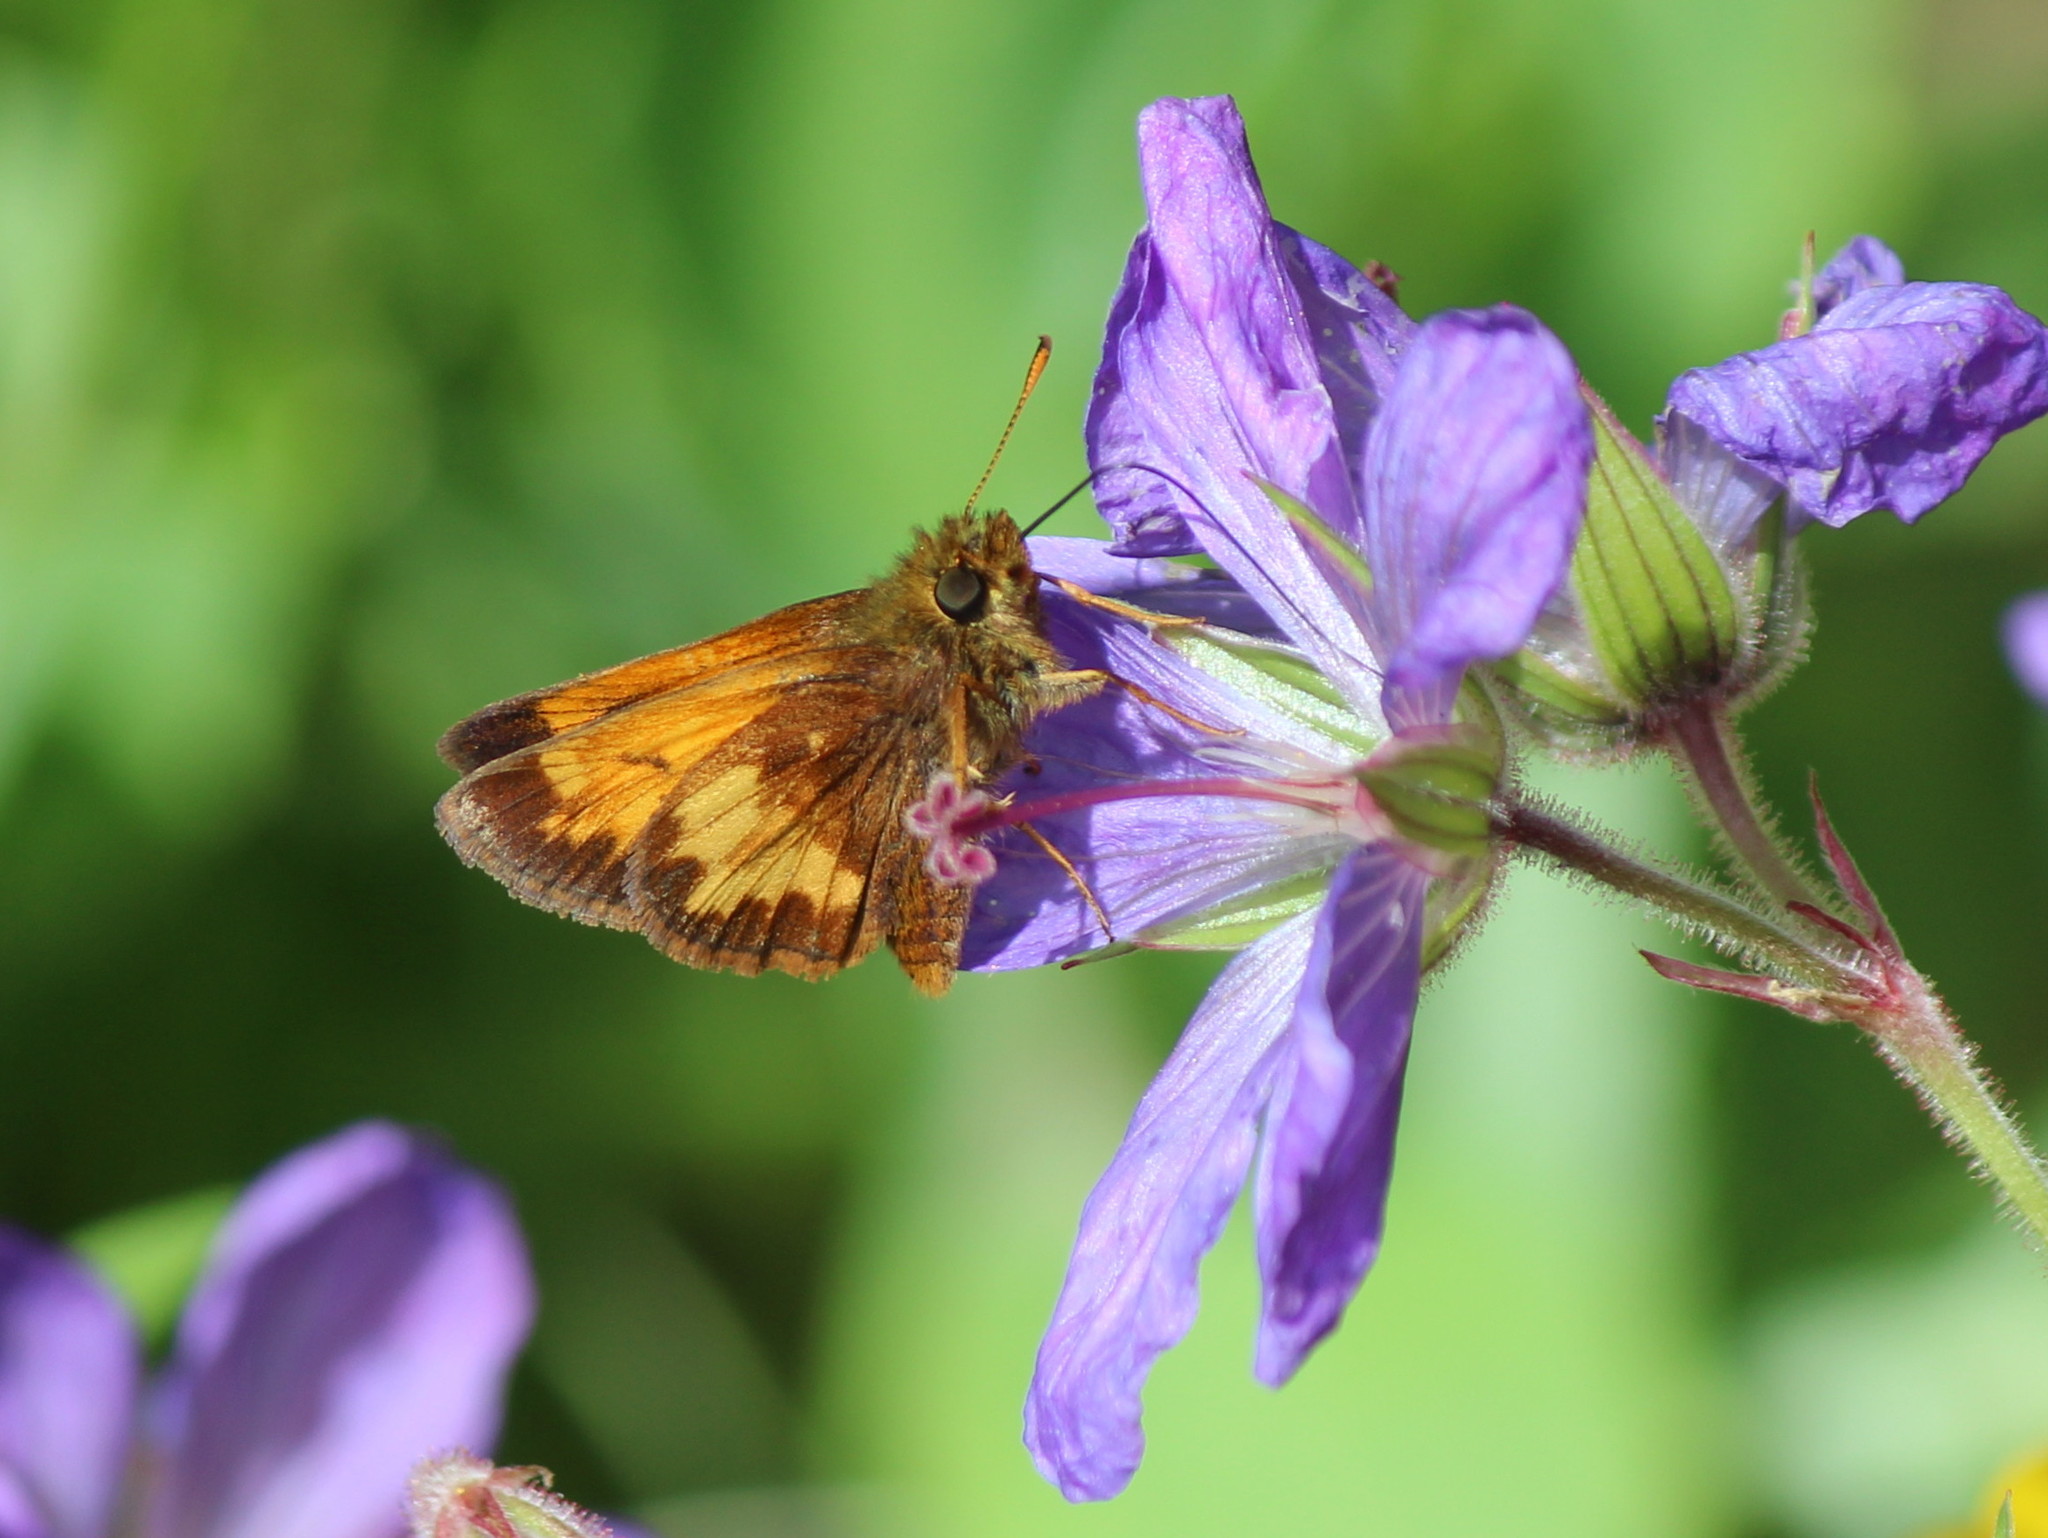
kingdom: Animalia
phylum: Arthropoda
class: Insecta
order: Lepidoptera
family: Hesperiidae
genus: Lon
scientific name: Lon hobomok
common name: Hobomok skipper
